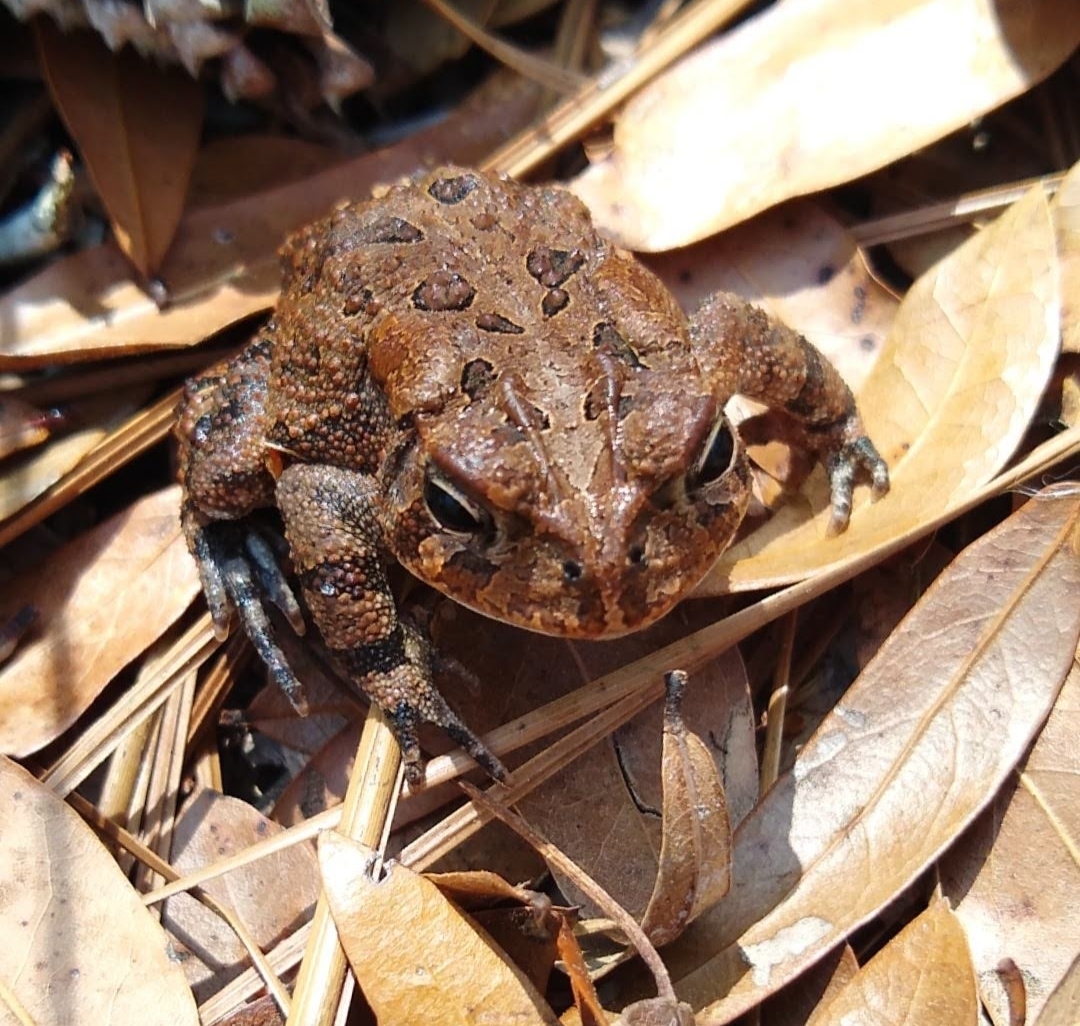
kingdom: Animalia
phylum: Chordata
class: Amphibia
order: Anura
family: Bufonidae
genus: Anaxyrus
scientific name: Anaxyrus terrestris
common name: Southern toad
